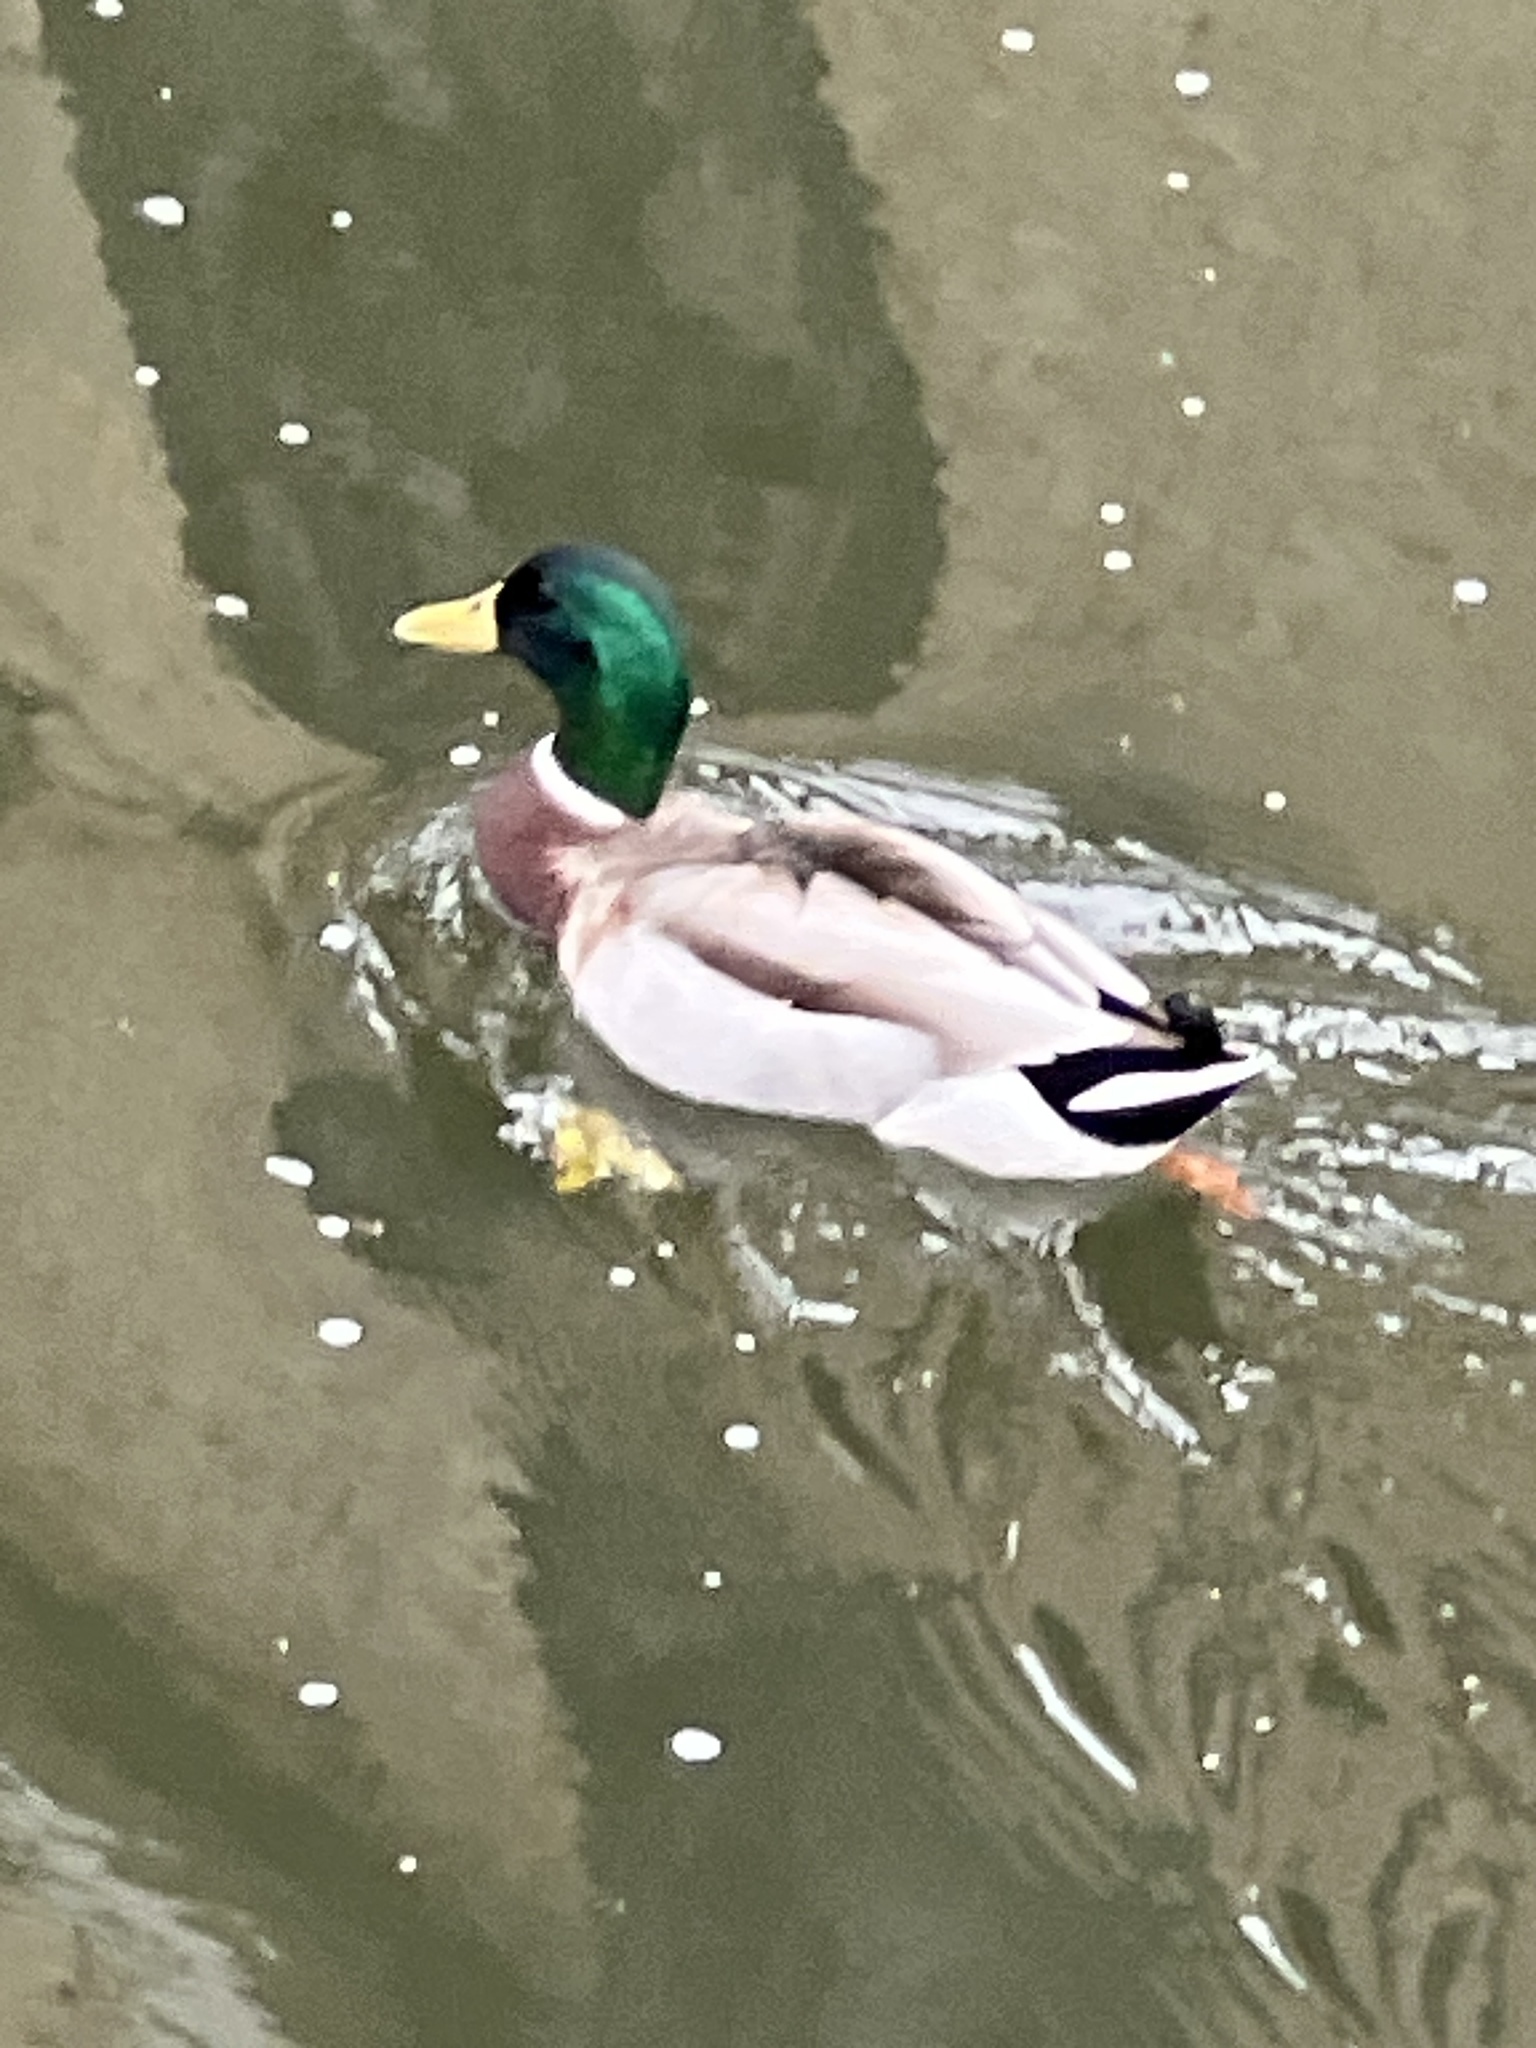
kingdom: Animalia
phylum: Chordata
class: Aves
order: Anseriformes
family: Anatidae
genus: Anas
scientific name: Anas platyrhynchos
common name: Mallard
